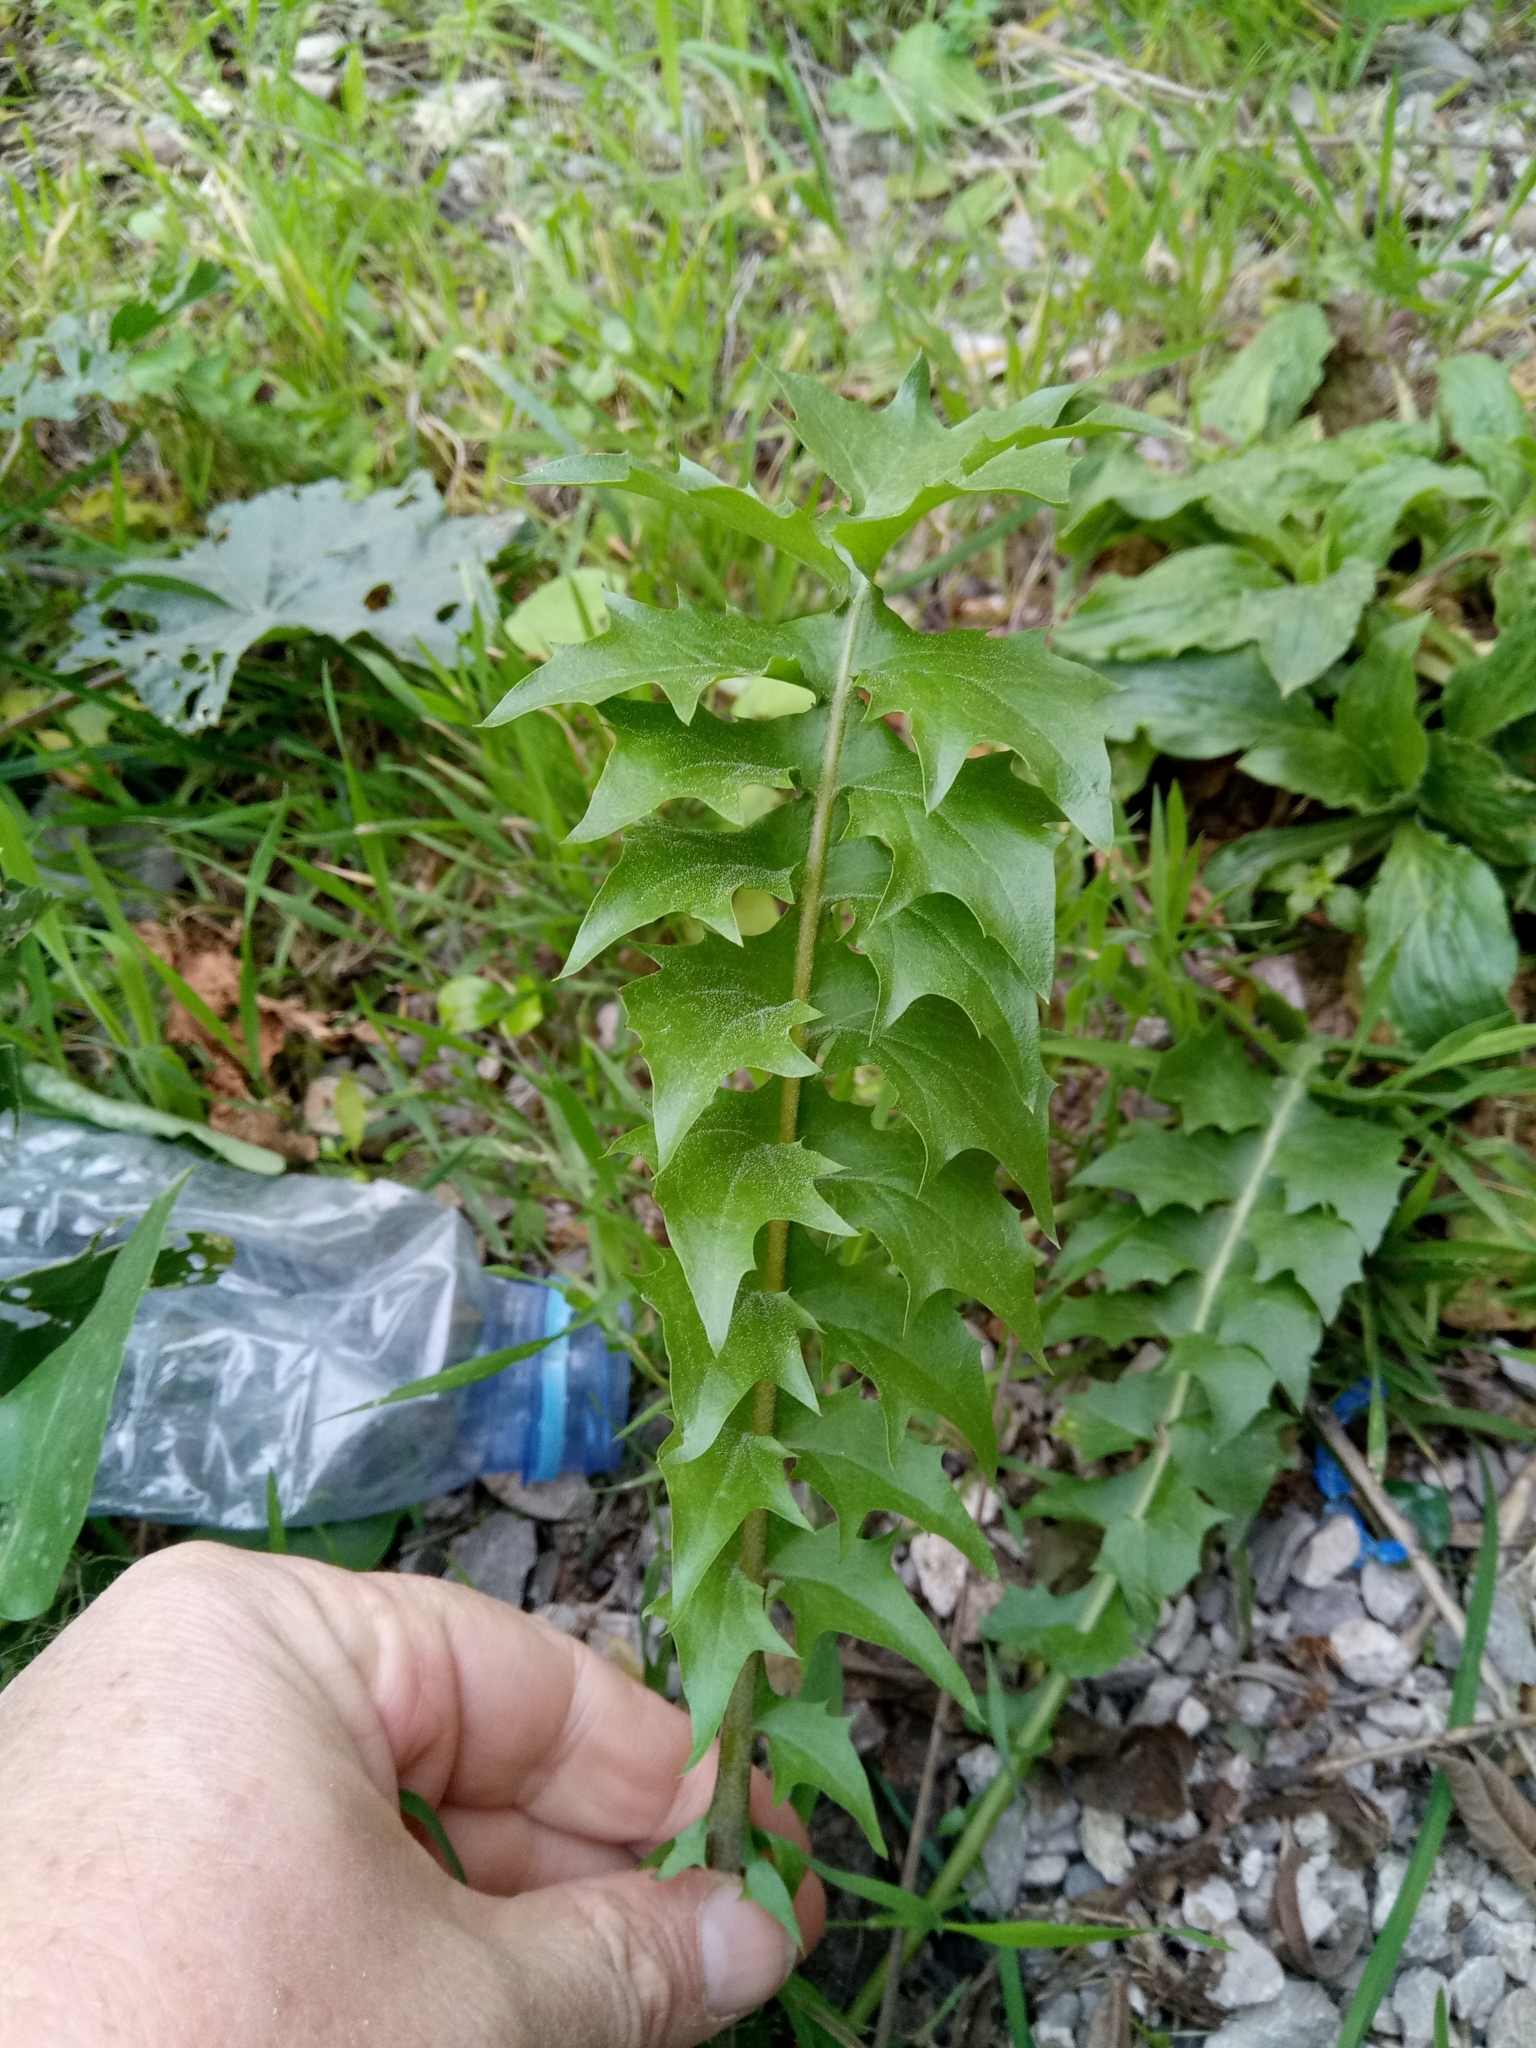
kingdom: Plantae
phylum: Tracheophyta
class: Magnoliopsida
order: Asterales
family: Asteraceae
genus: Hyoseris
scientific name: Hyoseris radiata
